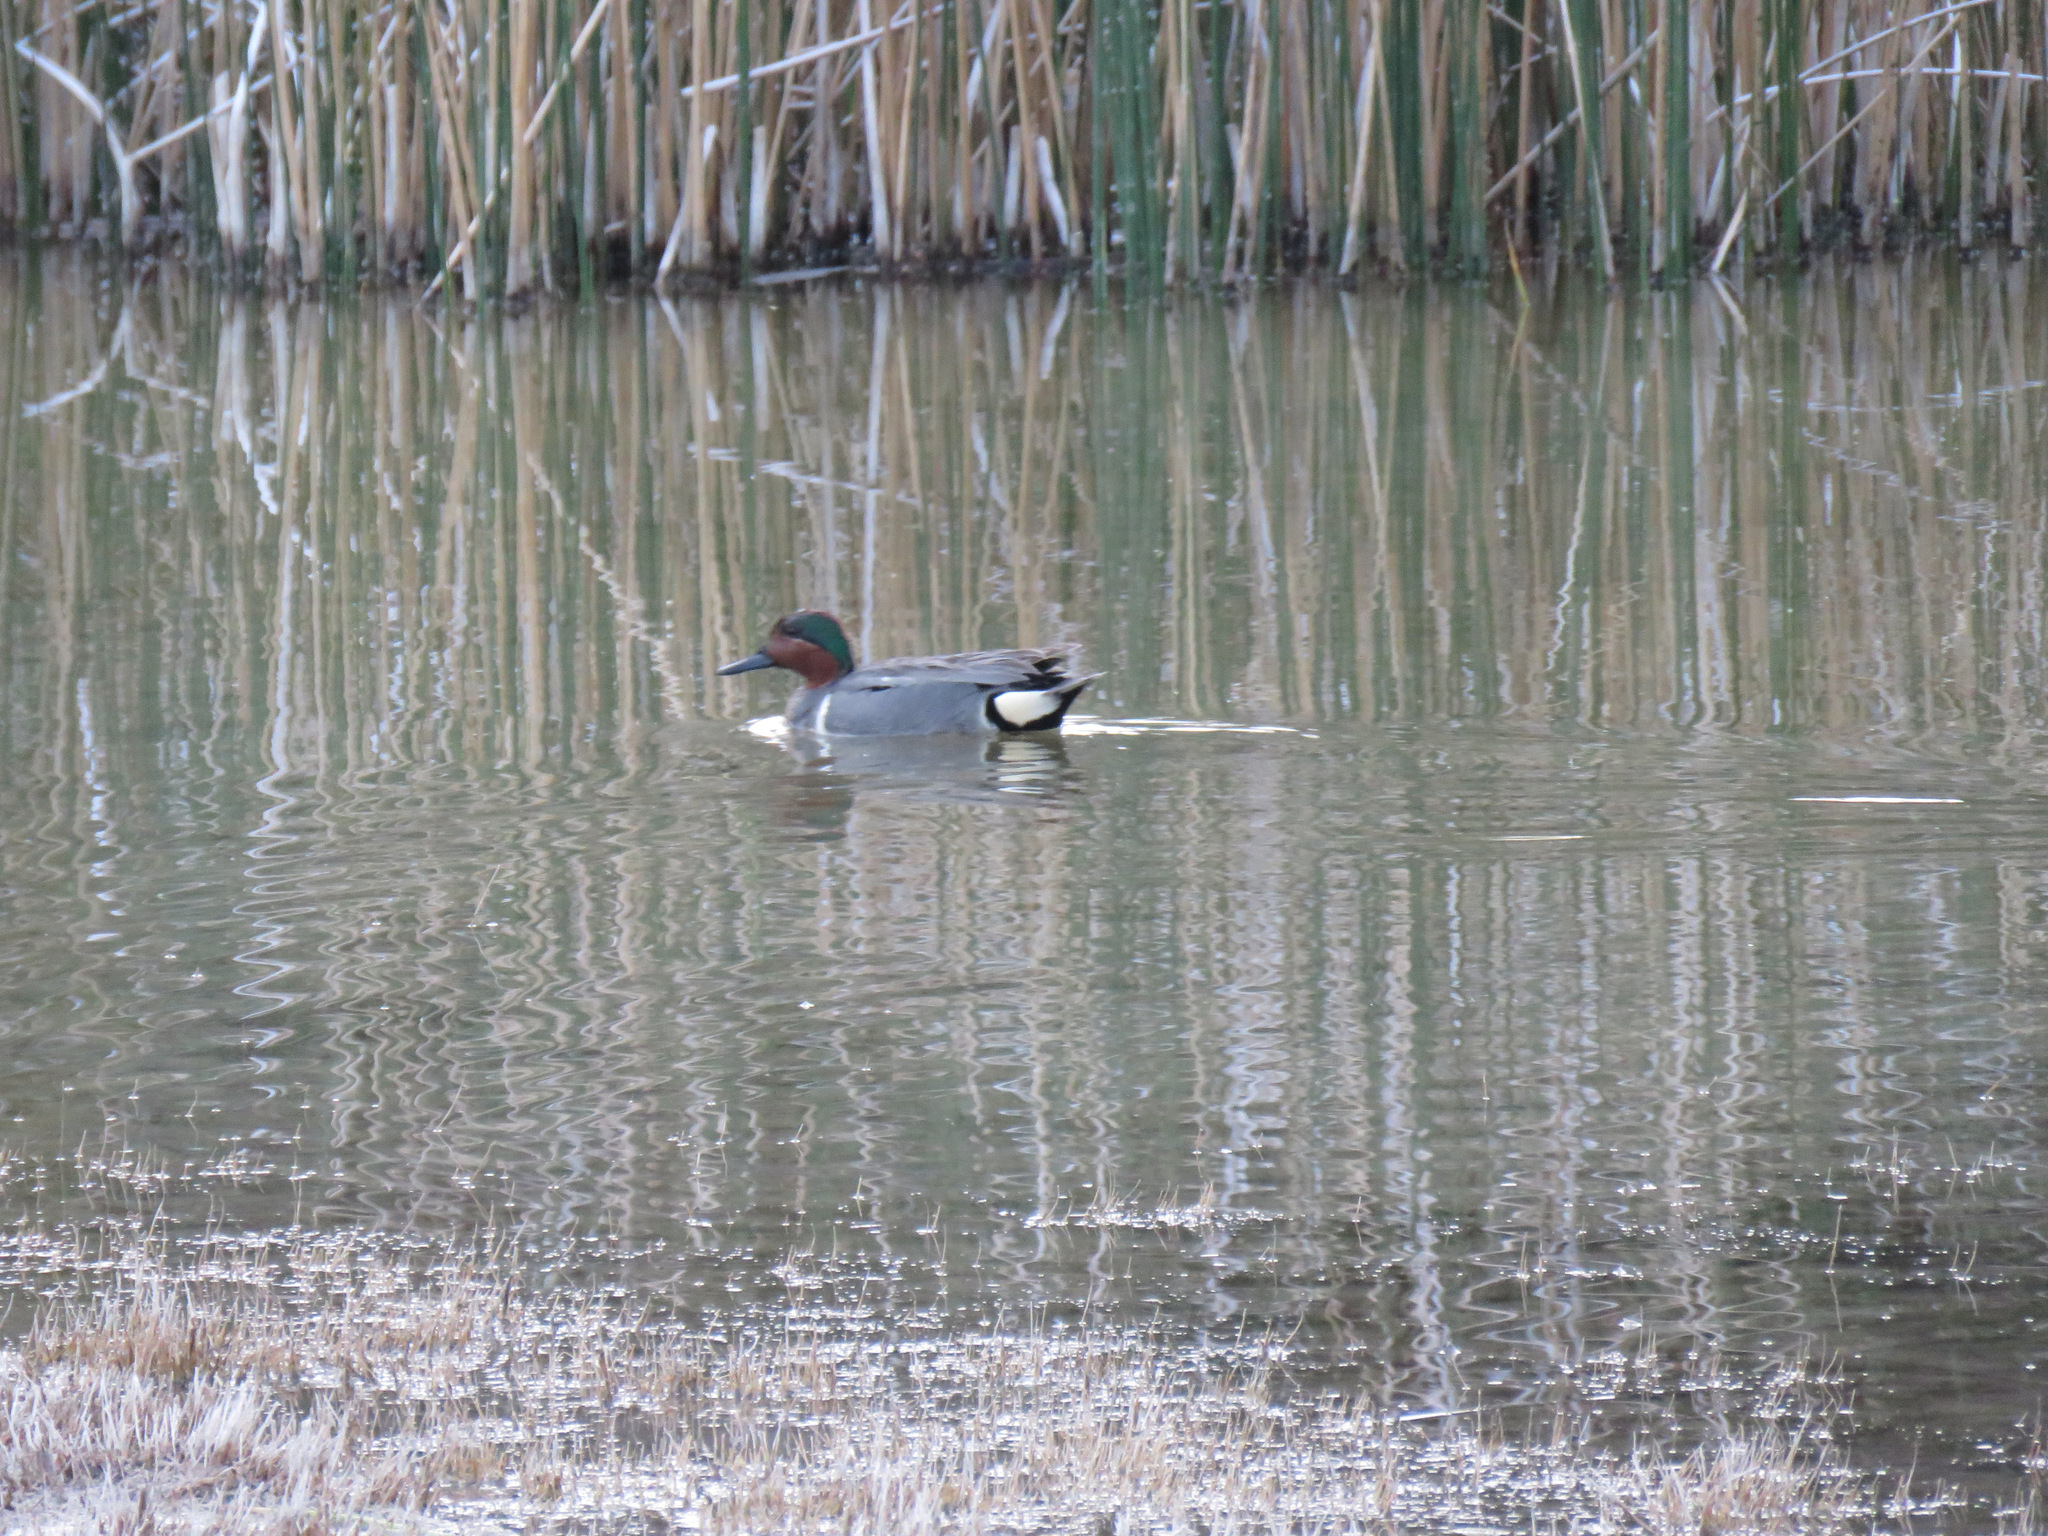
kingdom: Animalia
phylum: Chordata
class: Aves
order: Anseriformes
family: Anatidae
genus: Anas
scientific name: Anas crecca
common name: Eurasian teal
